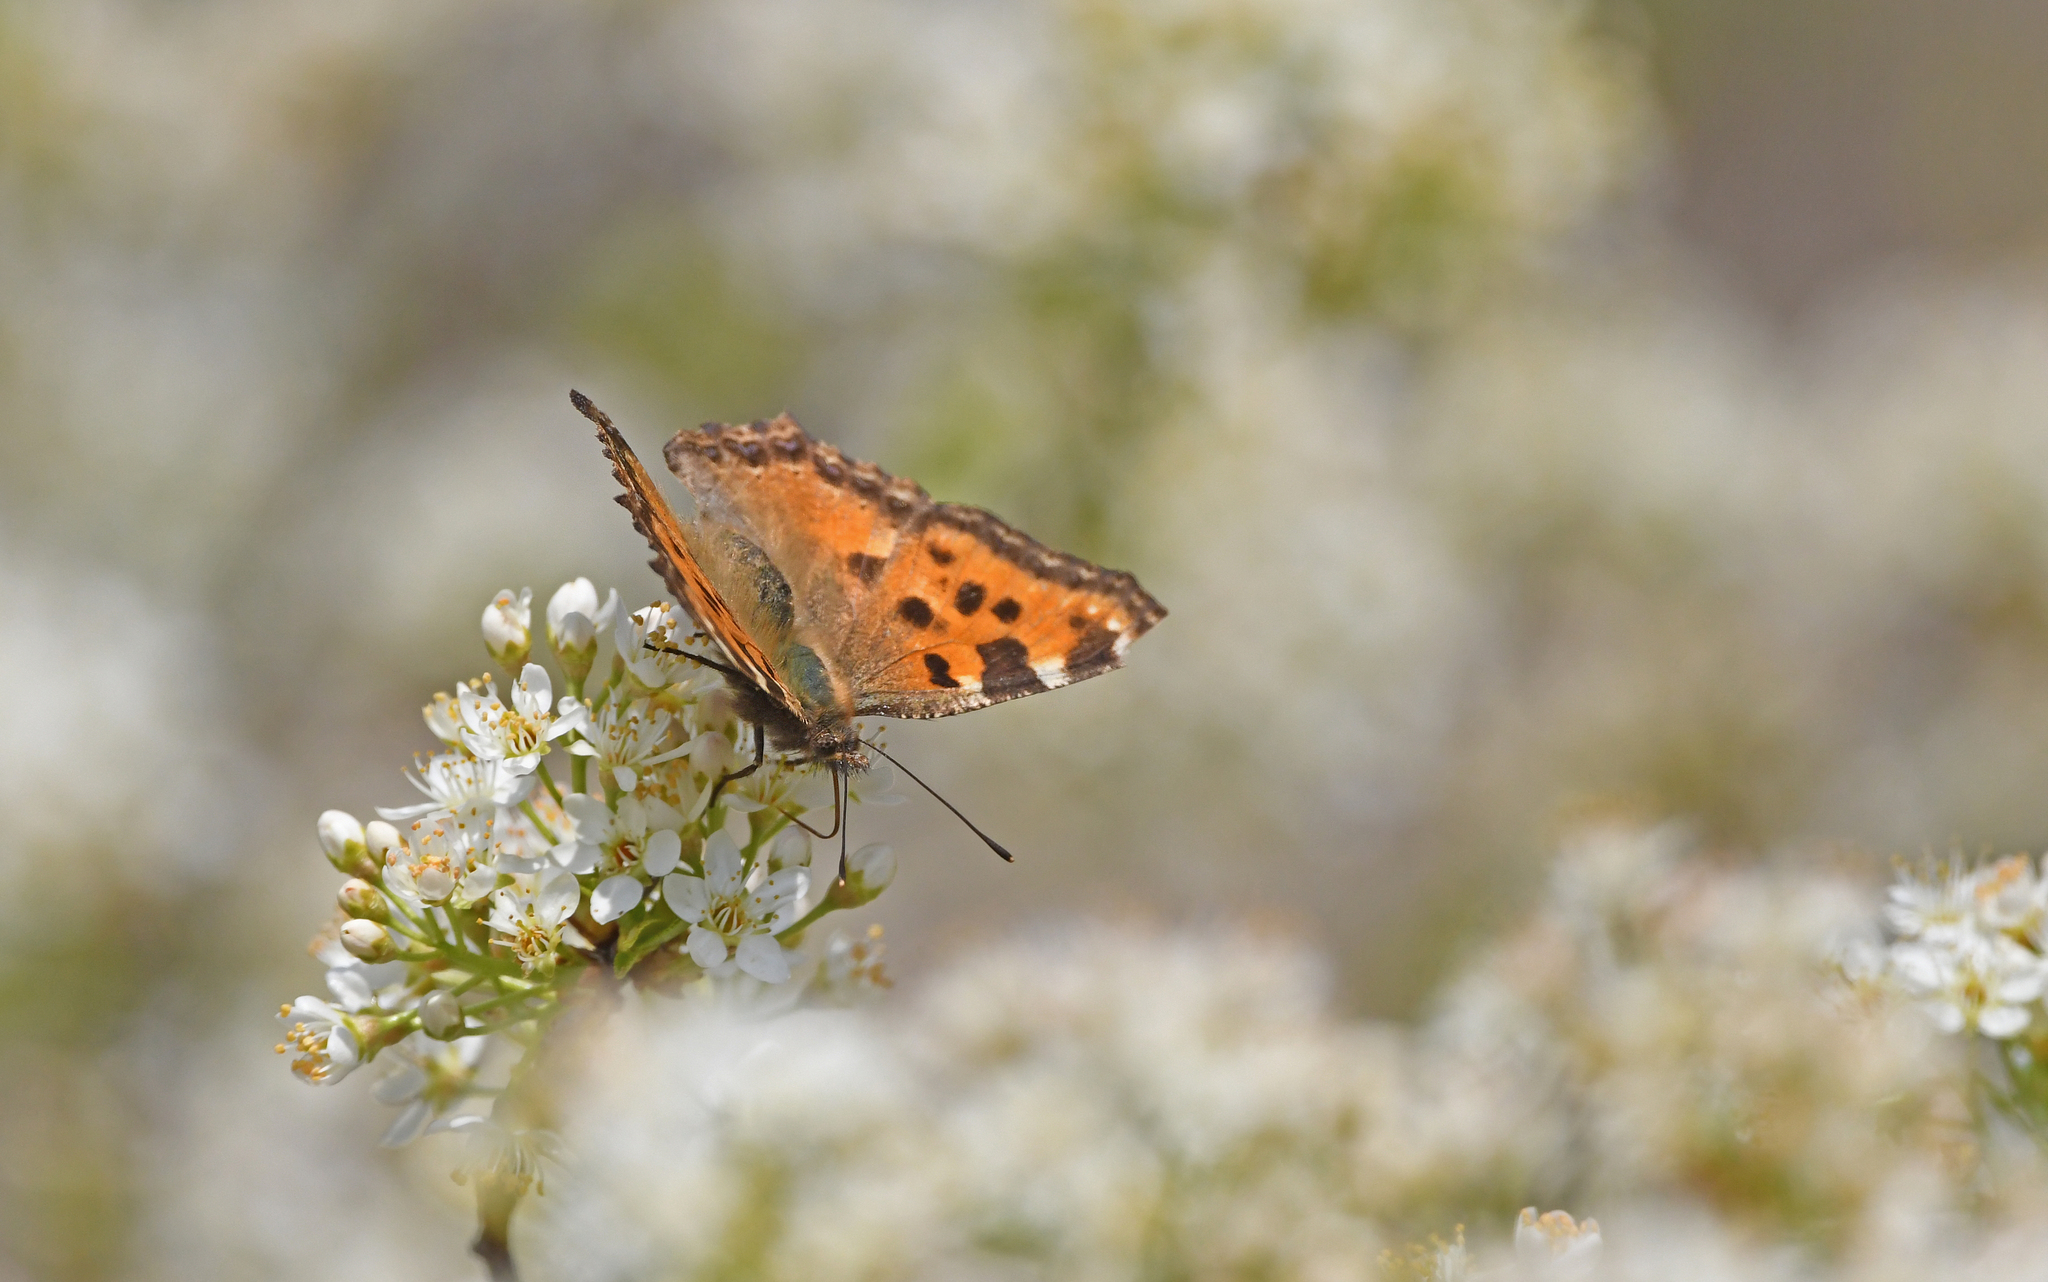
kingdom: Animalia
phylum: Arthropoda
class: Insecta
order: Lepidoptera
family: Nymphalidae
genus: Nymphalis
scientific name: Nymphalis polychloros
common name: Large tortoiseshell
